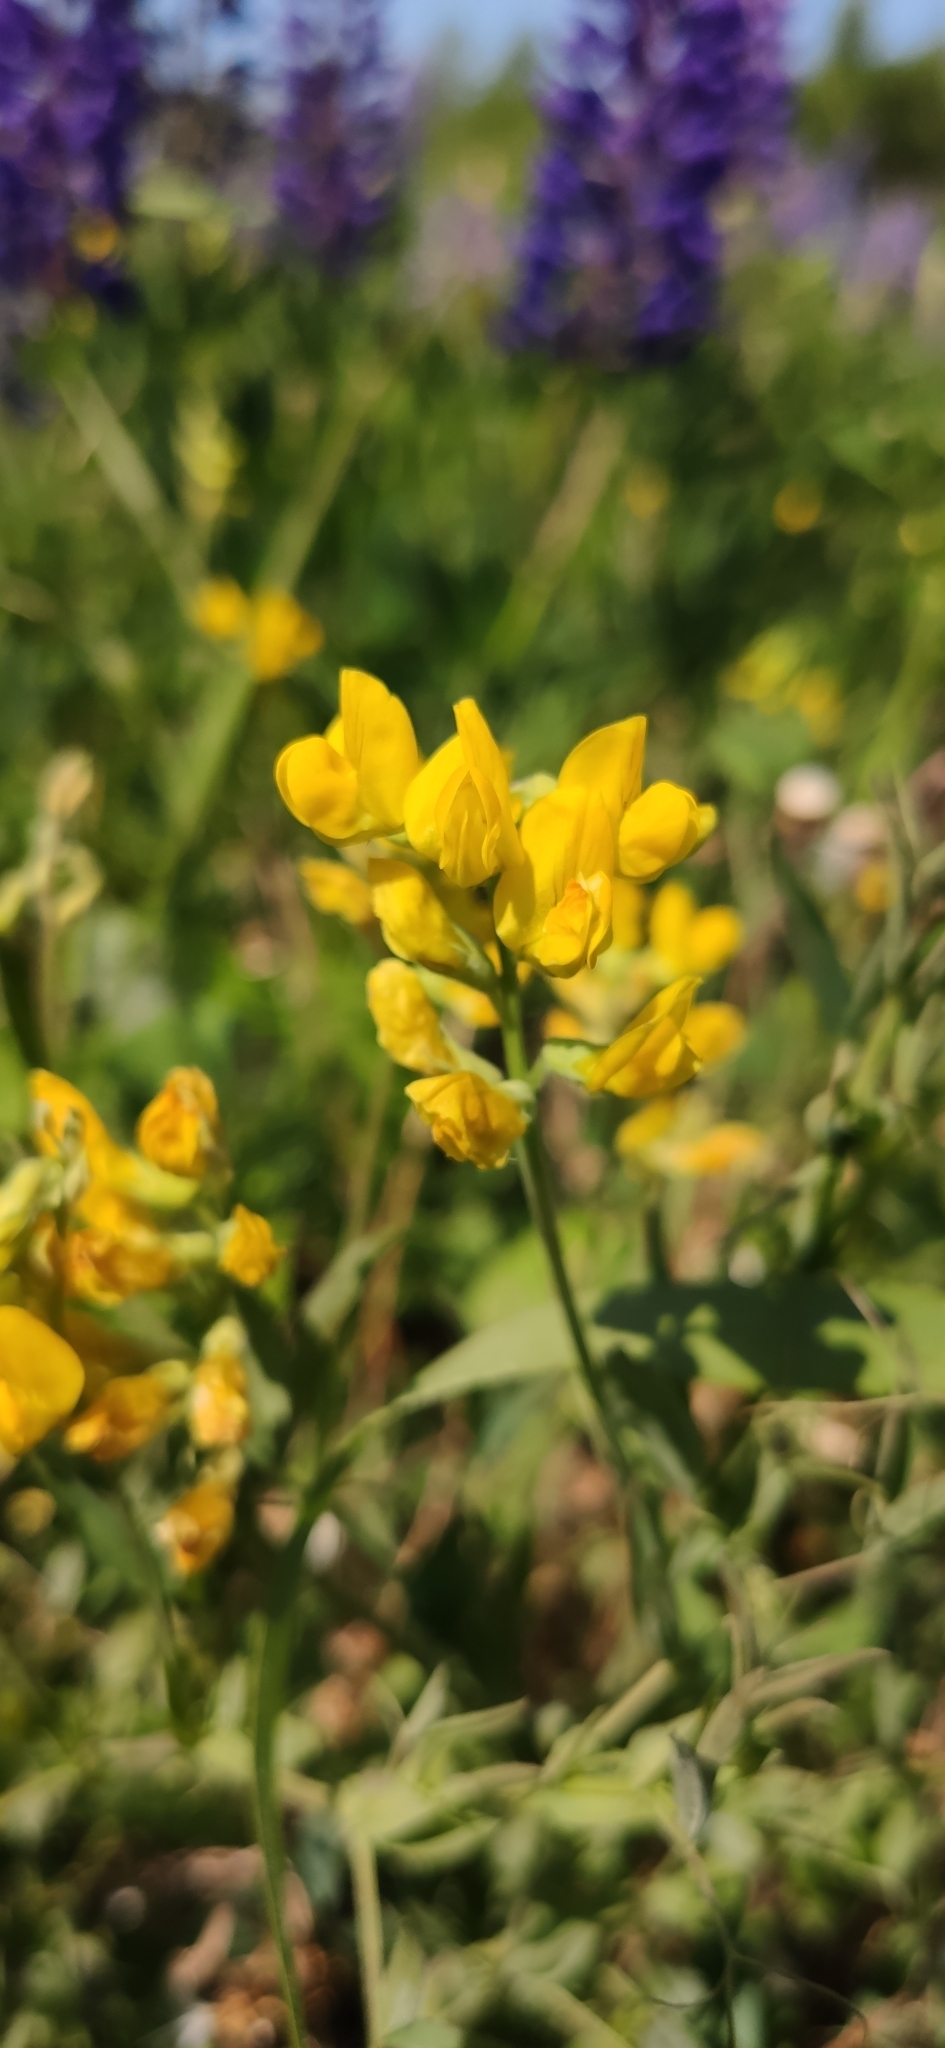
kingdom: Plantae
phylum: Tracheophyta
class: Magnoliopsida
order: Fabales
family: Fabaceae
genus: Lathyrus
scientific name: Lathyrus pratensis
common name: Meadow vetchling
